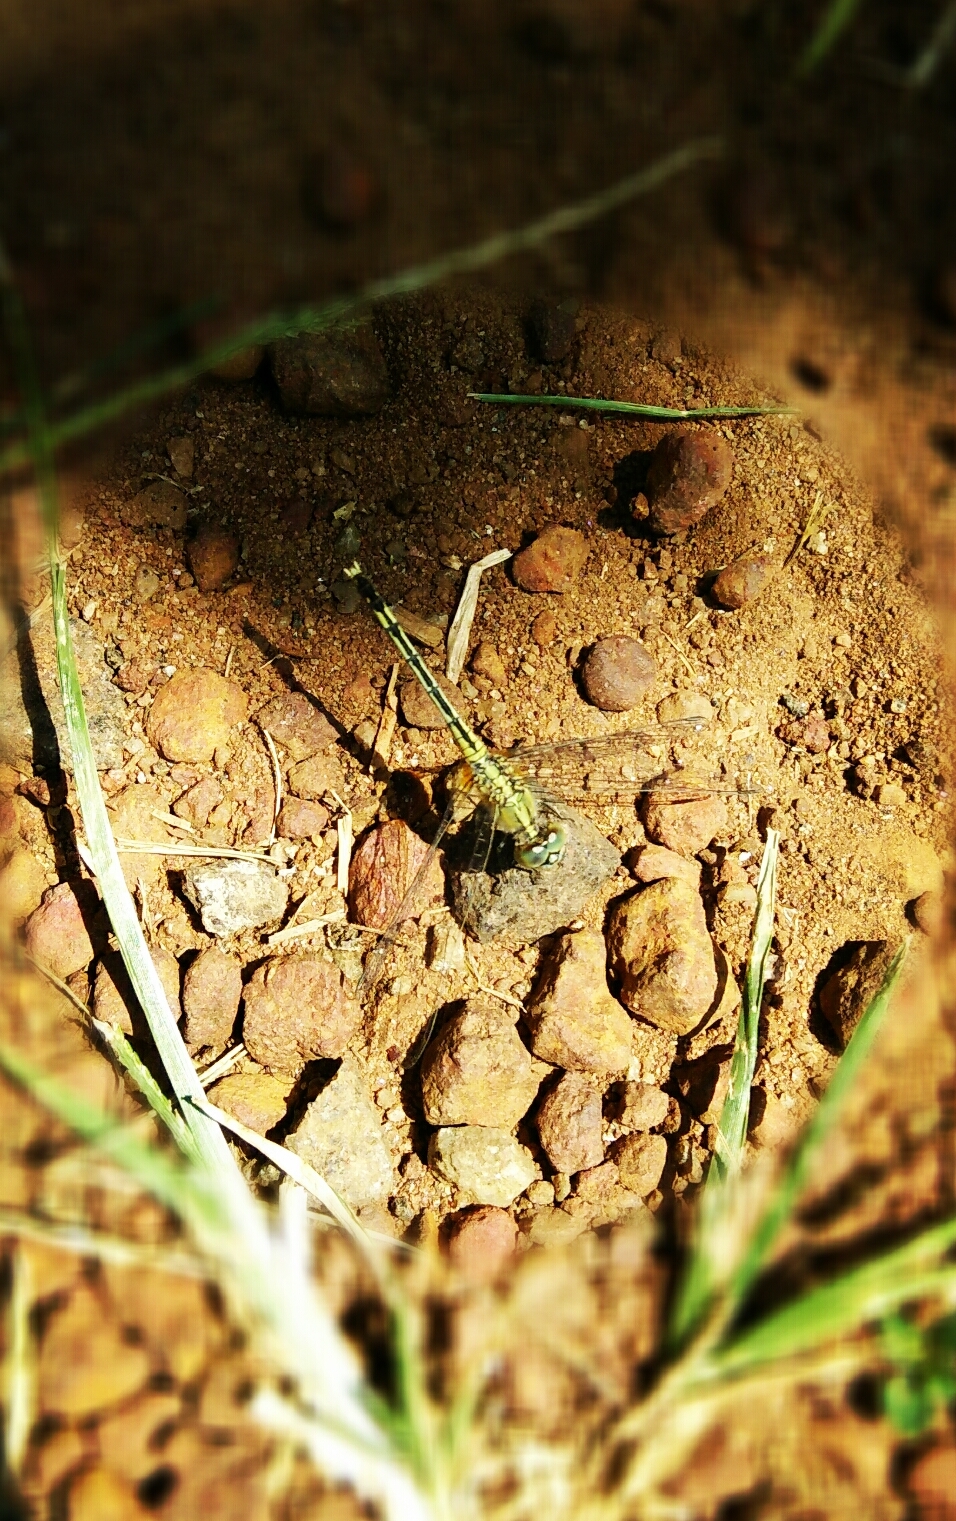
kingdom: Animalia
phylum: Arthropoda
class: Insecta
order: Odonata
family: Libellulidae
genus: Diplacodes
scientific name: Diplacodes trivialis
